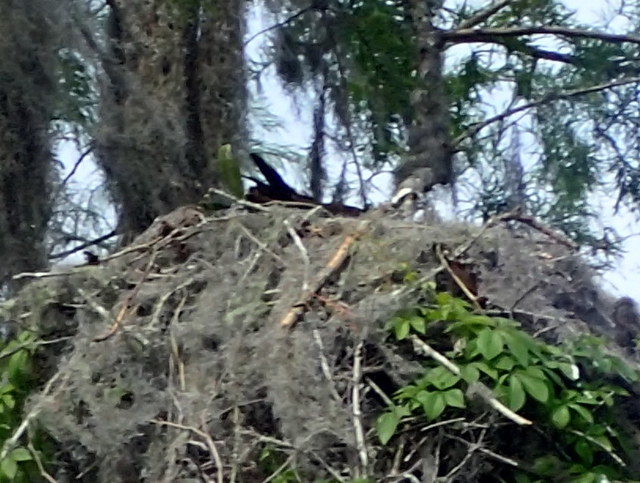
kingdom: Animalia
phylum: Chordata
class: Aves
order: Accipitriformes
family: Pandionidae
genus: Pandion
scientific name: Pandion haliaetus
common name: Osprey
